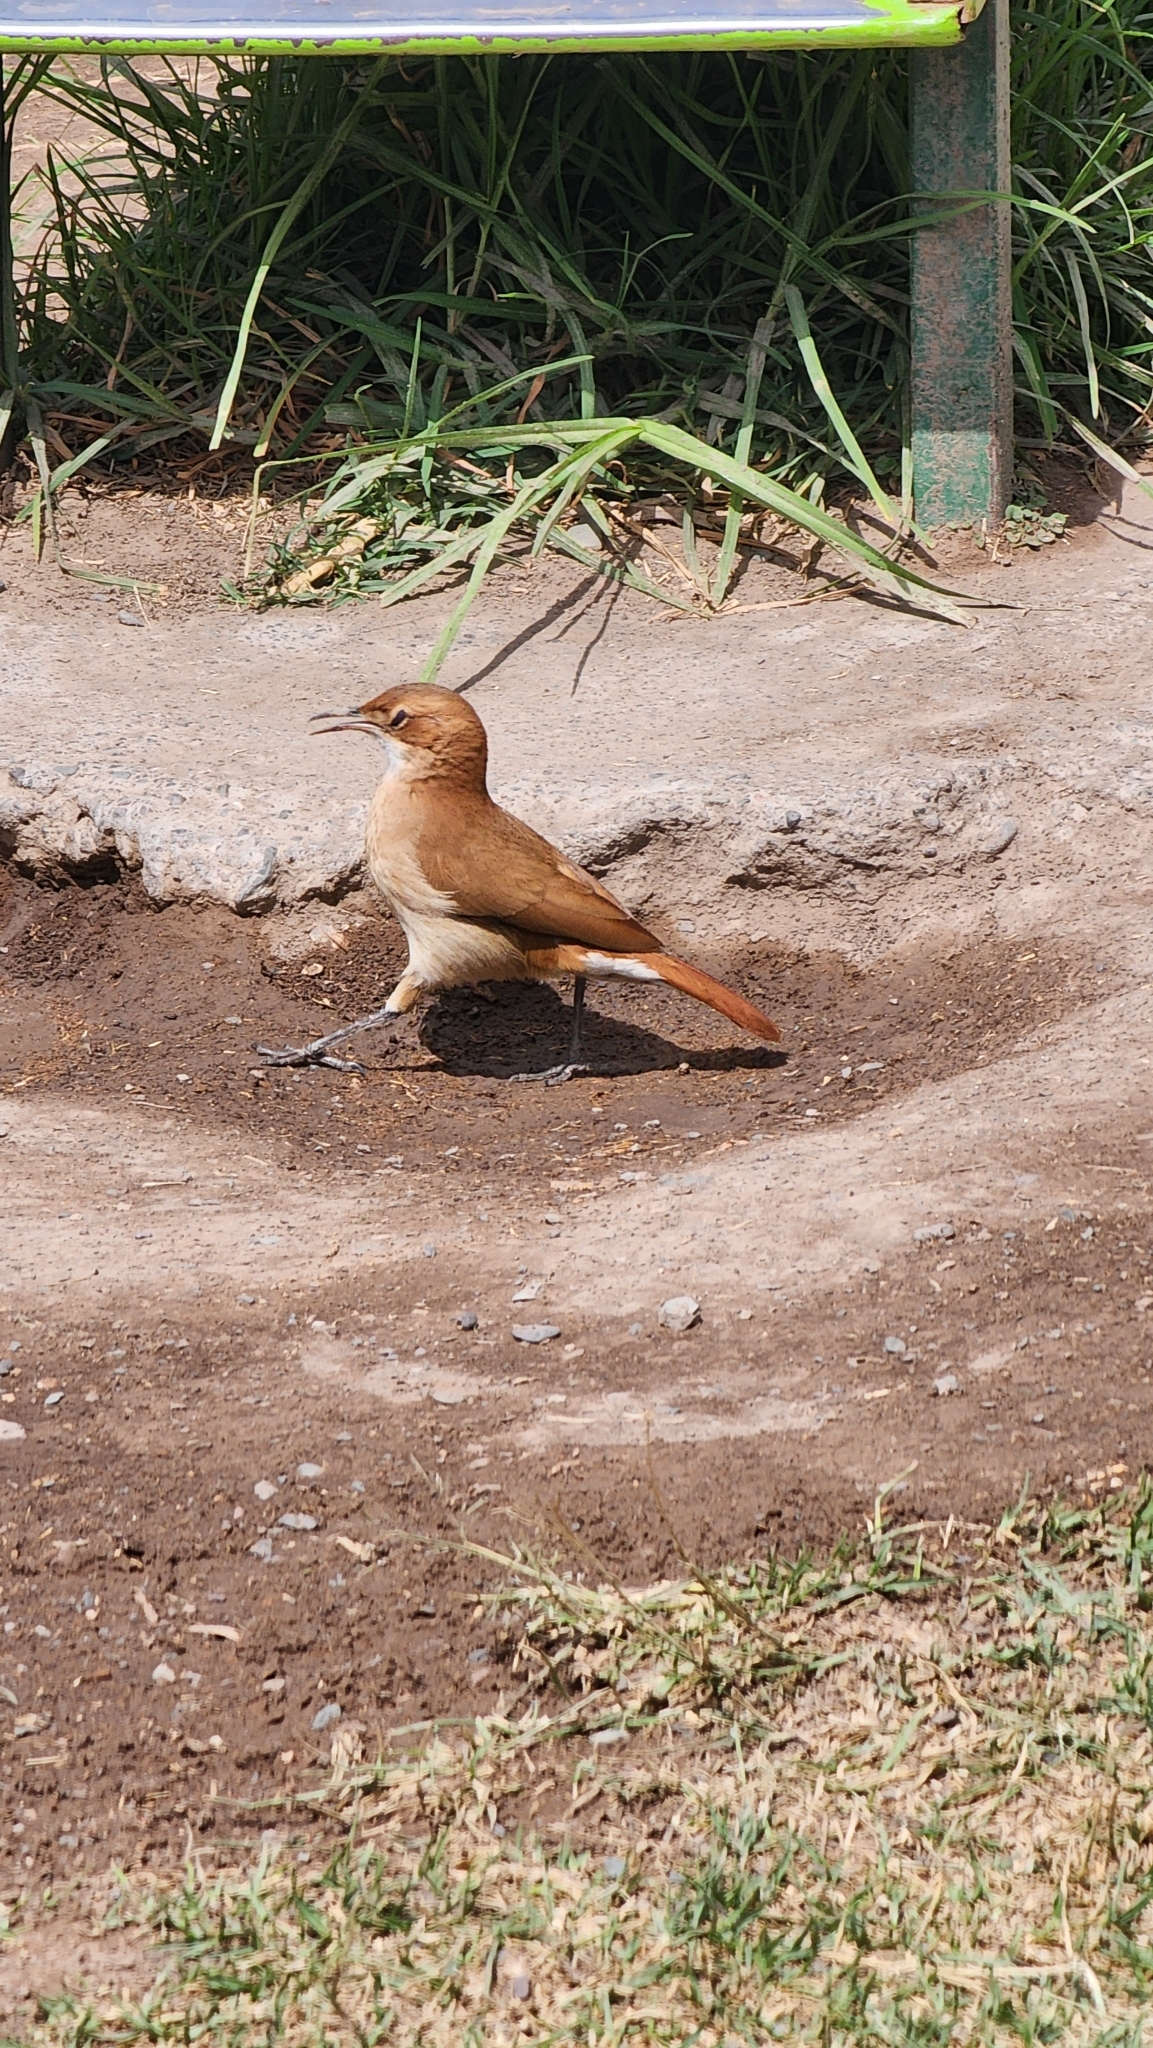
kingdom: Animalia
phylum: Chordata
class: Aves
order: Passeriformes
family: Furnariidae
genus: Furnarius
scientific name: Furnarius rufus
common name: Rufous hornero
